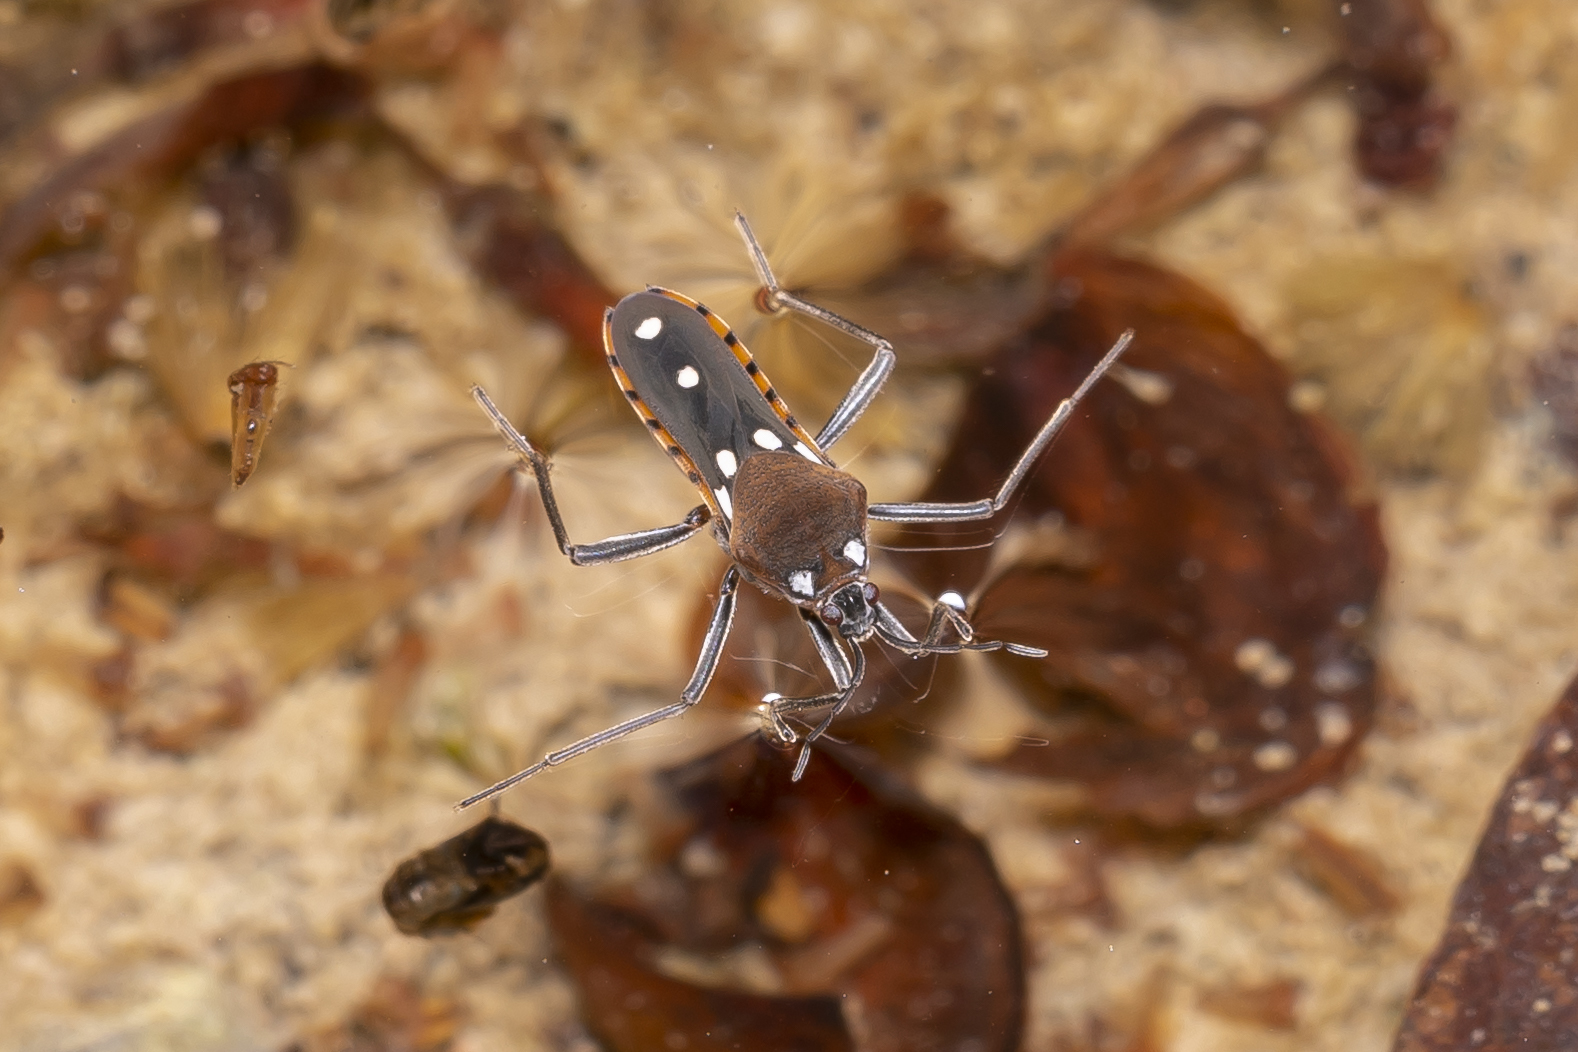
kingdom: Animalia
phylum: Arthropoda
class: Insecta
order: Hemiptera
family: Veliidae
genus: Velia
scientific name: Velia affinis
